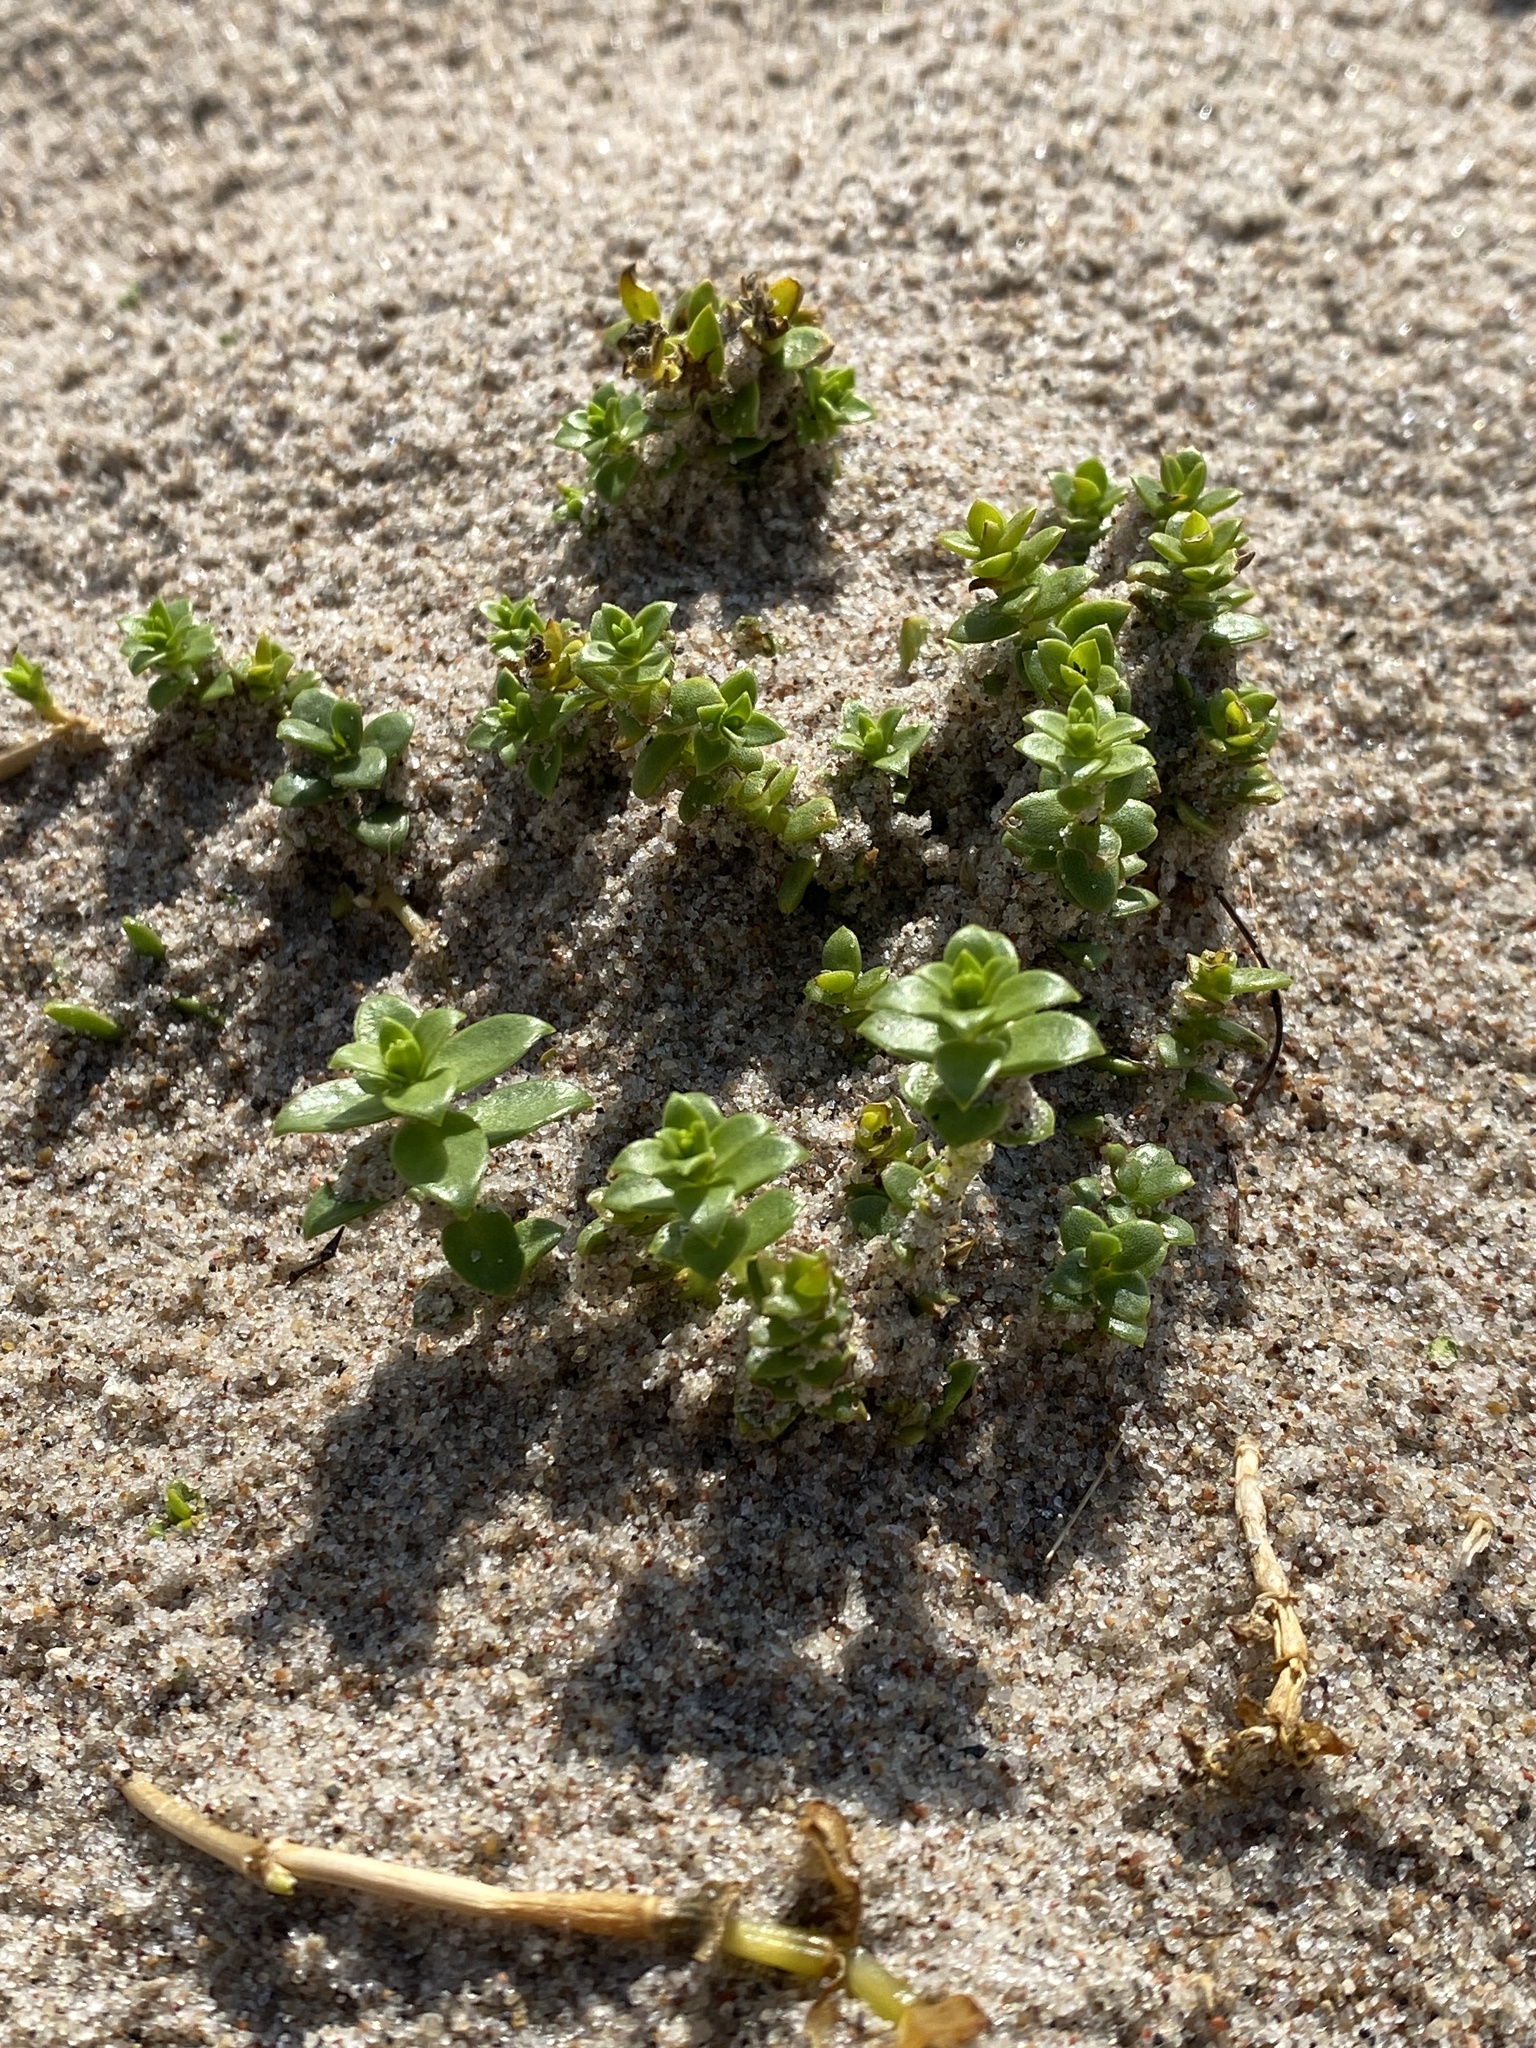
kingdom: Plantae
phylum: Tracheophyta
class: Magnoliopsida
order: Caryophyllales
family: Caryophyllaceae
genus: Honckenya
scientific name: Honckenya peploides
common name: Sea sandwort
